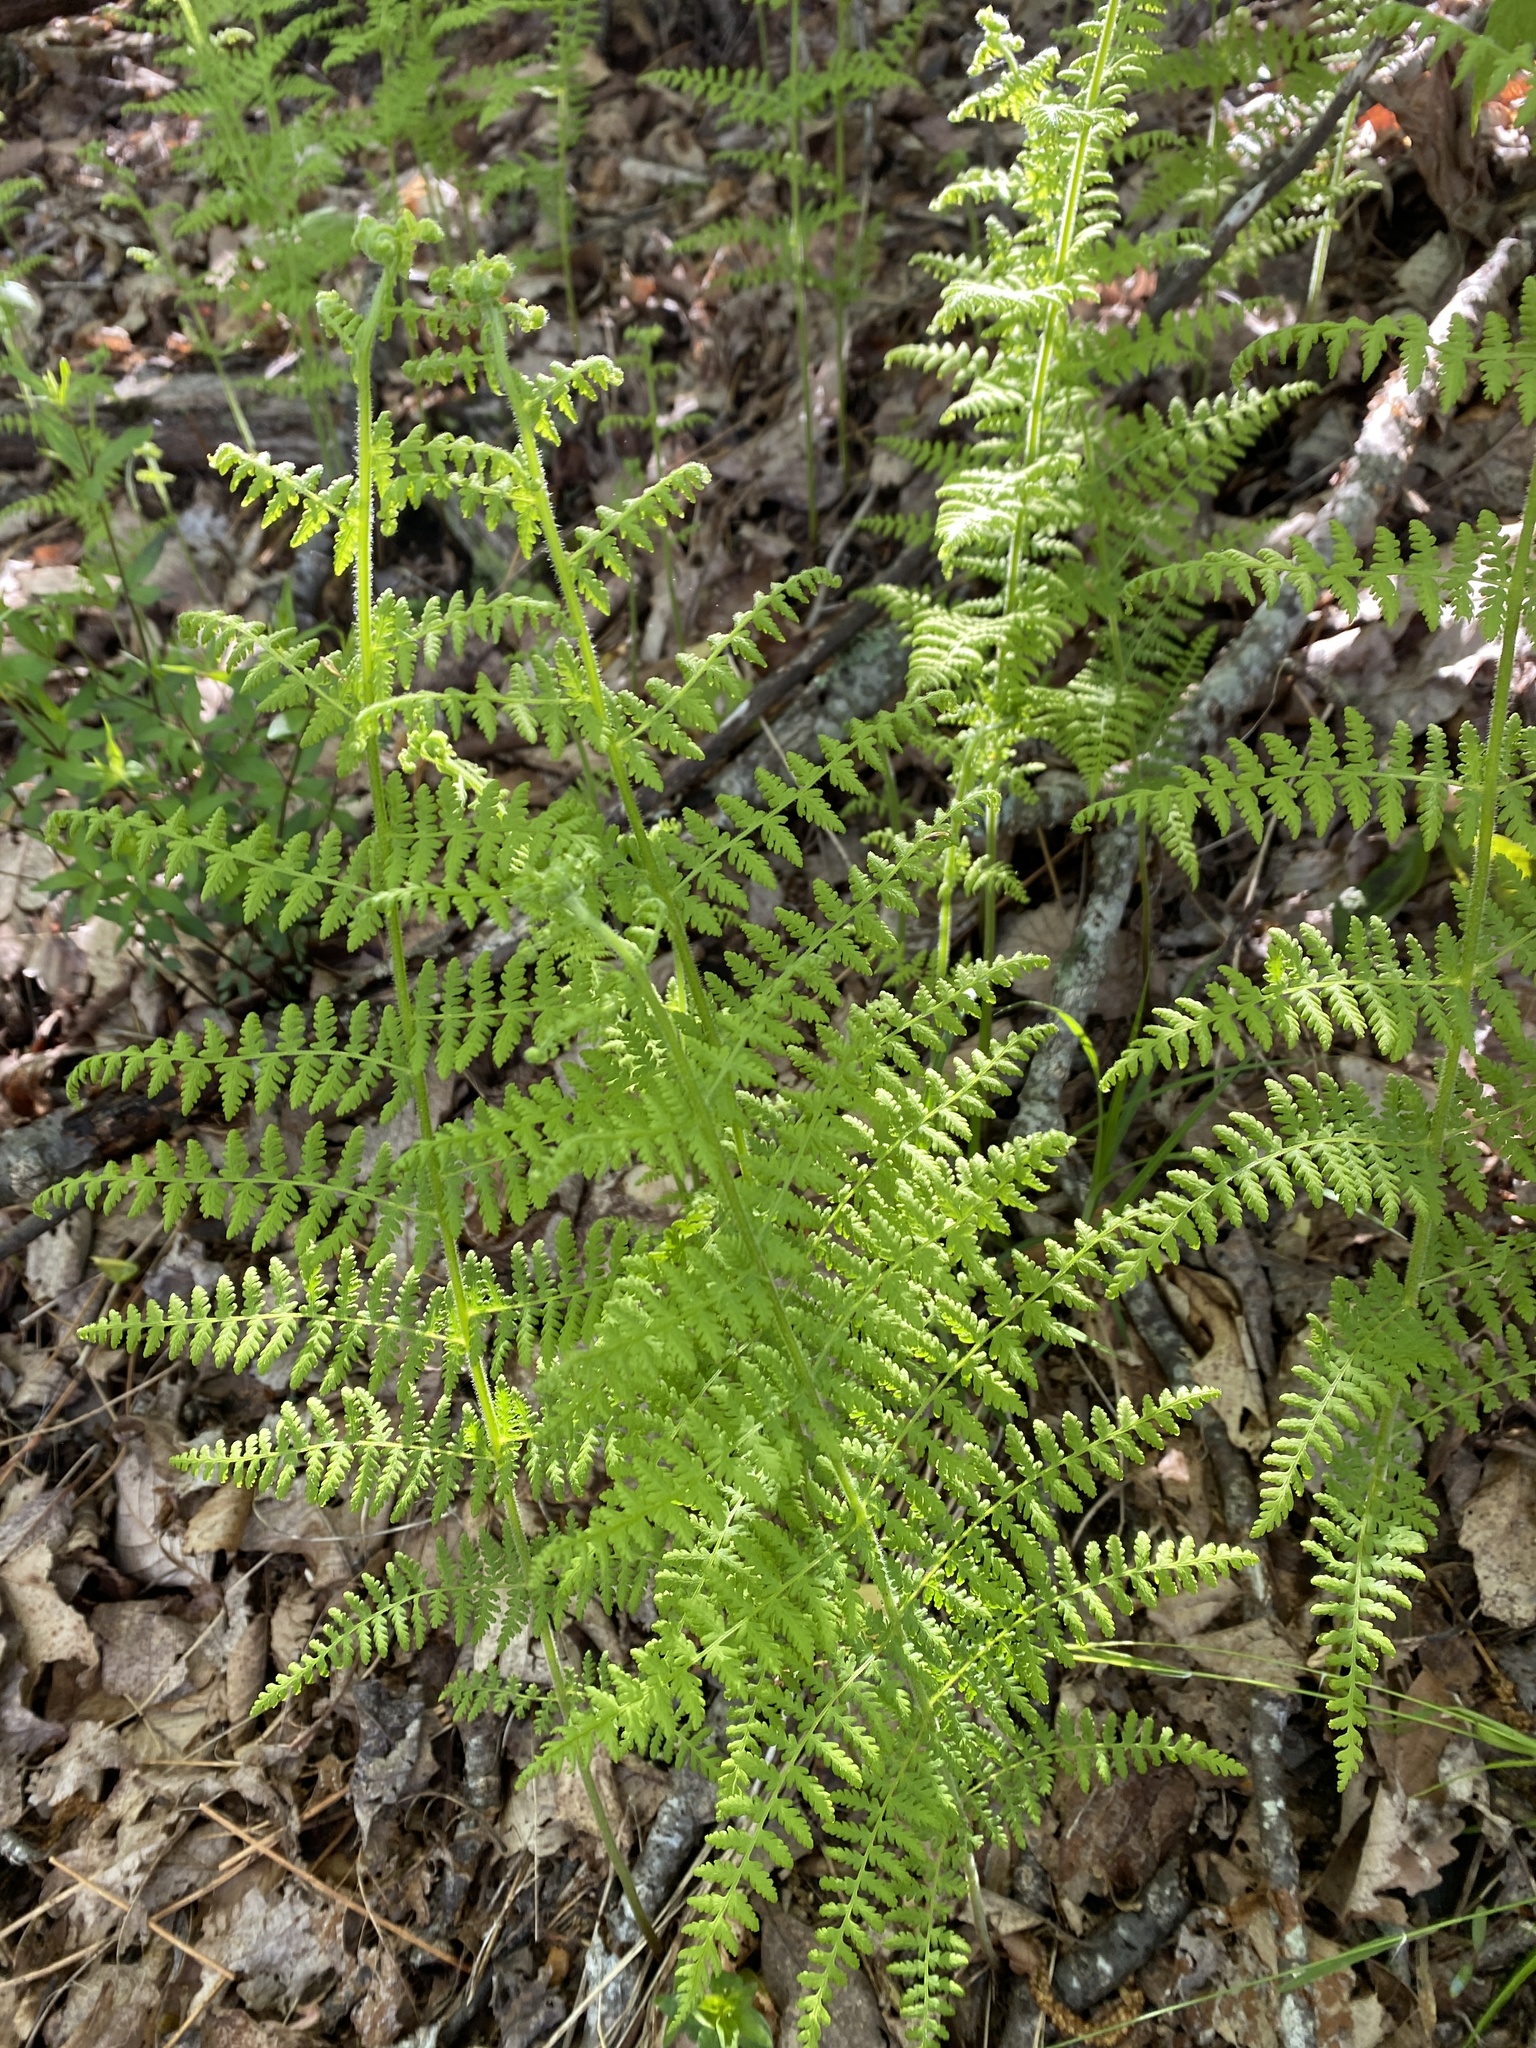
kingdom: Plantae
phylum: Tracheophyta
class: Polypodiopsida
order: Polypodiales
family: Dennstaedtiaceae
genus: Sitobolium
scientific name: Sitobolium punctilobum
